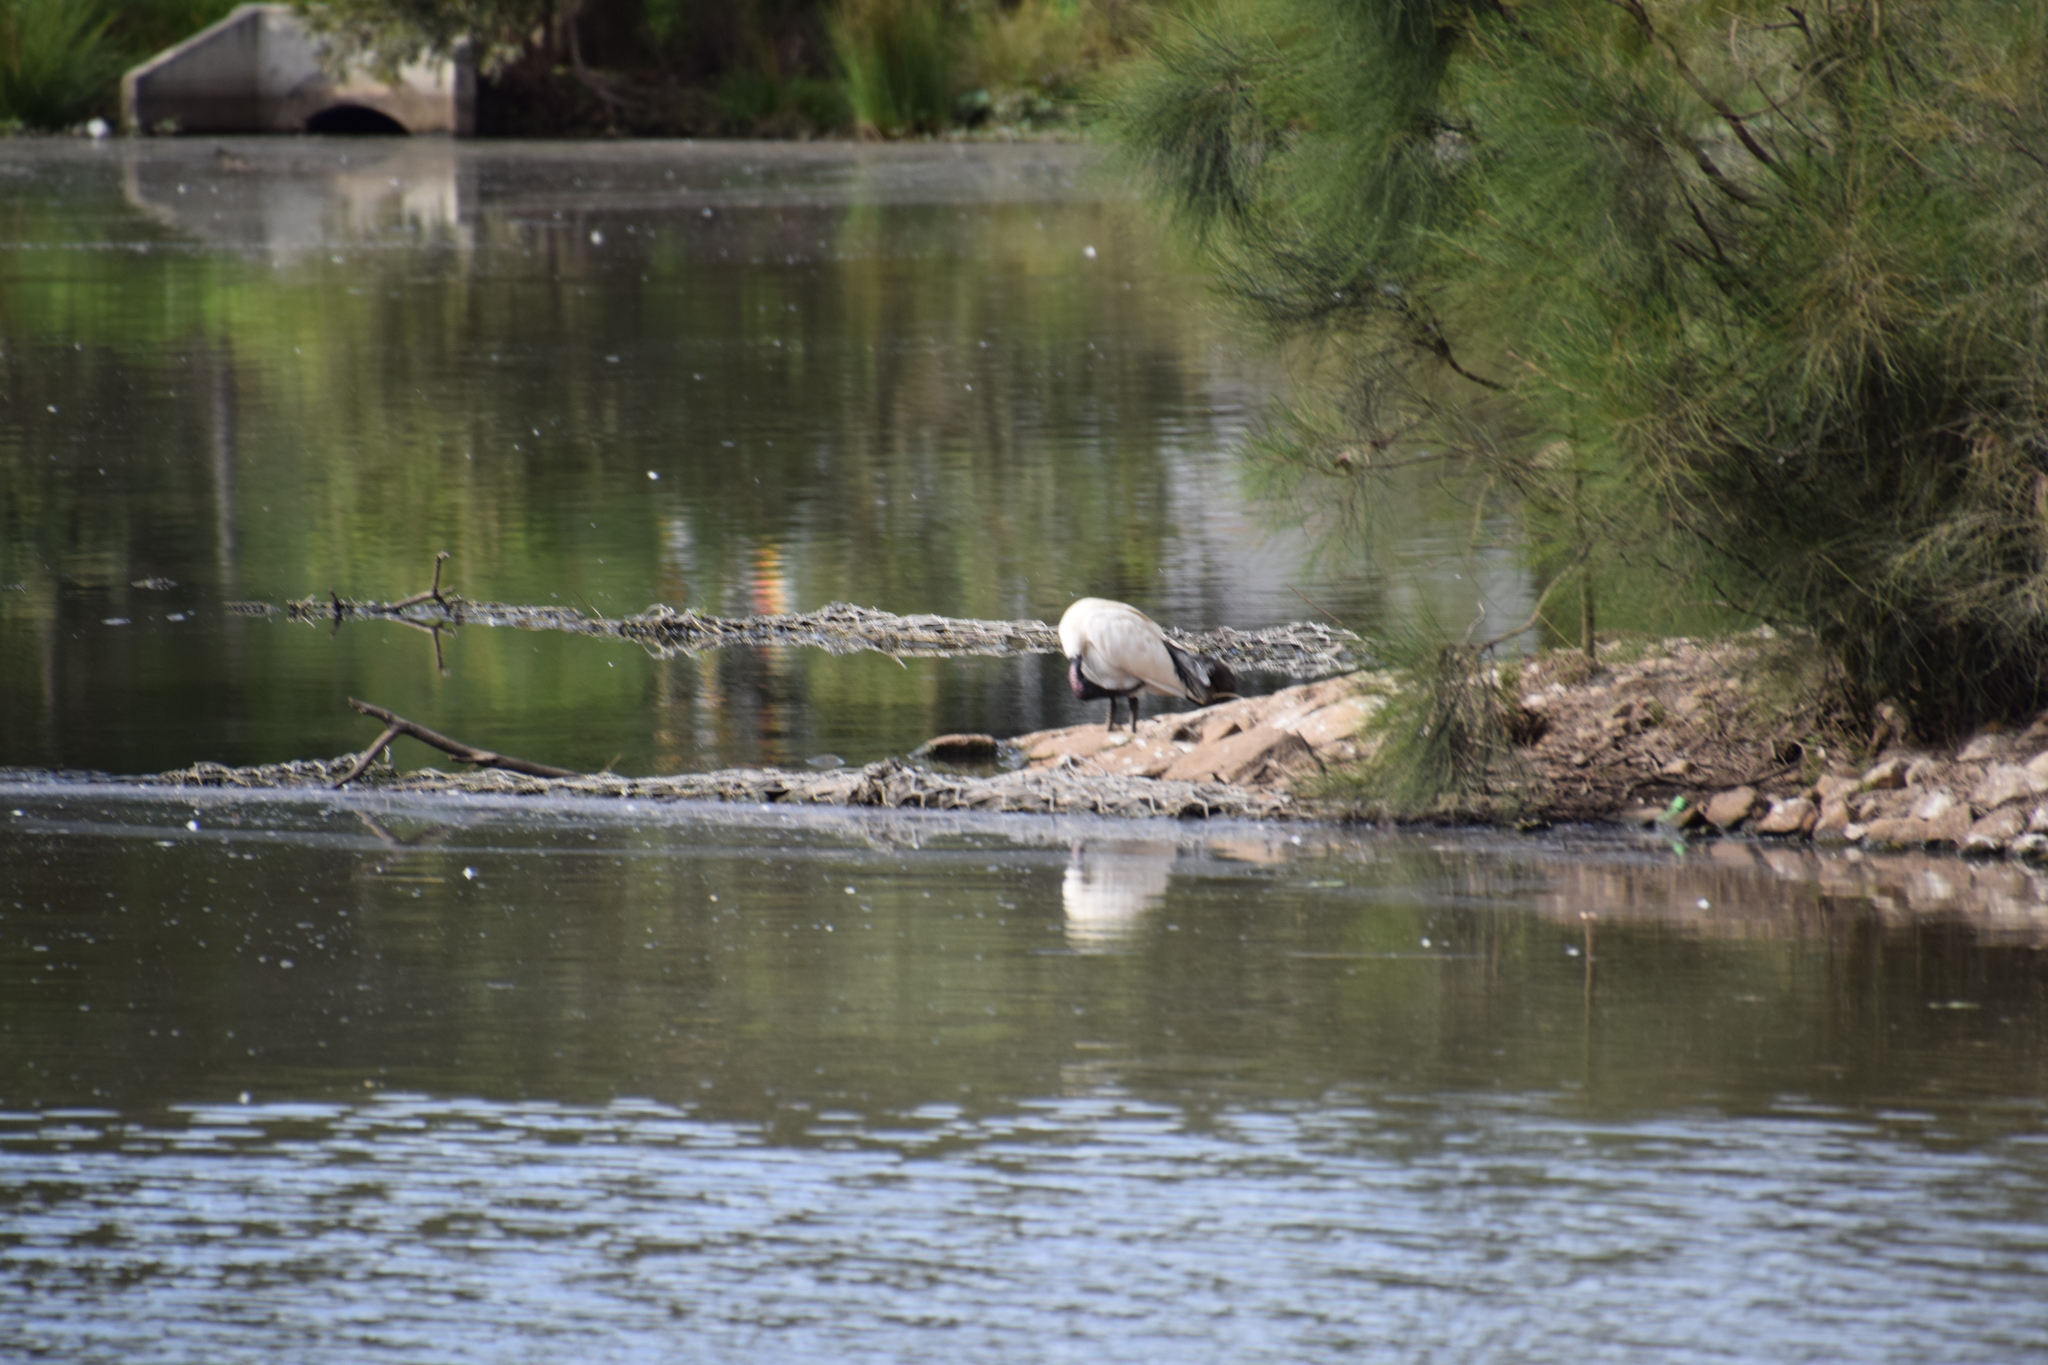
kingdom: Animalia
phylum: Chordata
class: Aves
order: Pelecaniformes
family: Threskiornithidae
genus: Threskiornis
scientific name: Threskiornis molucca
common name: Australian white ibis
